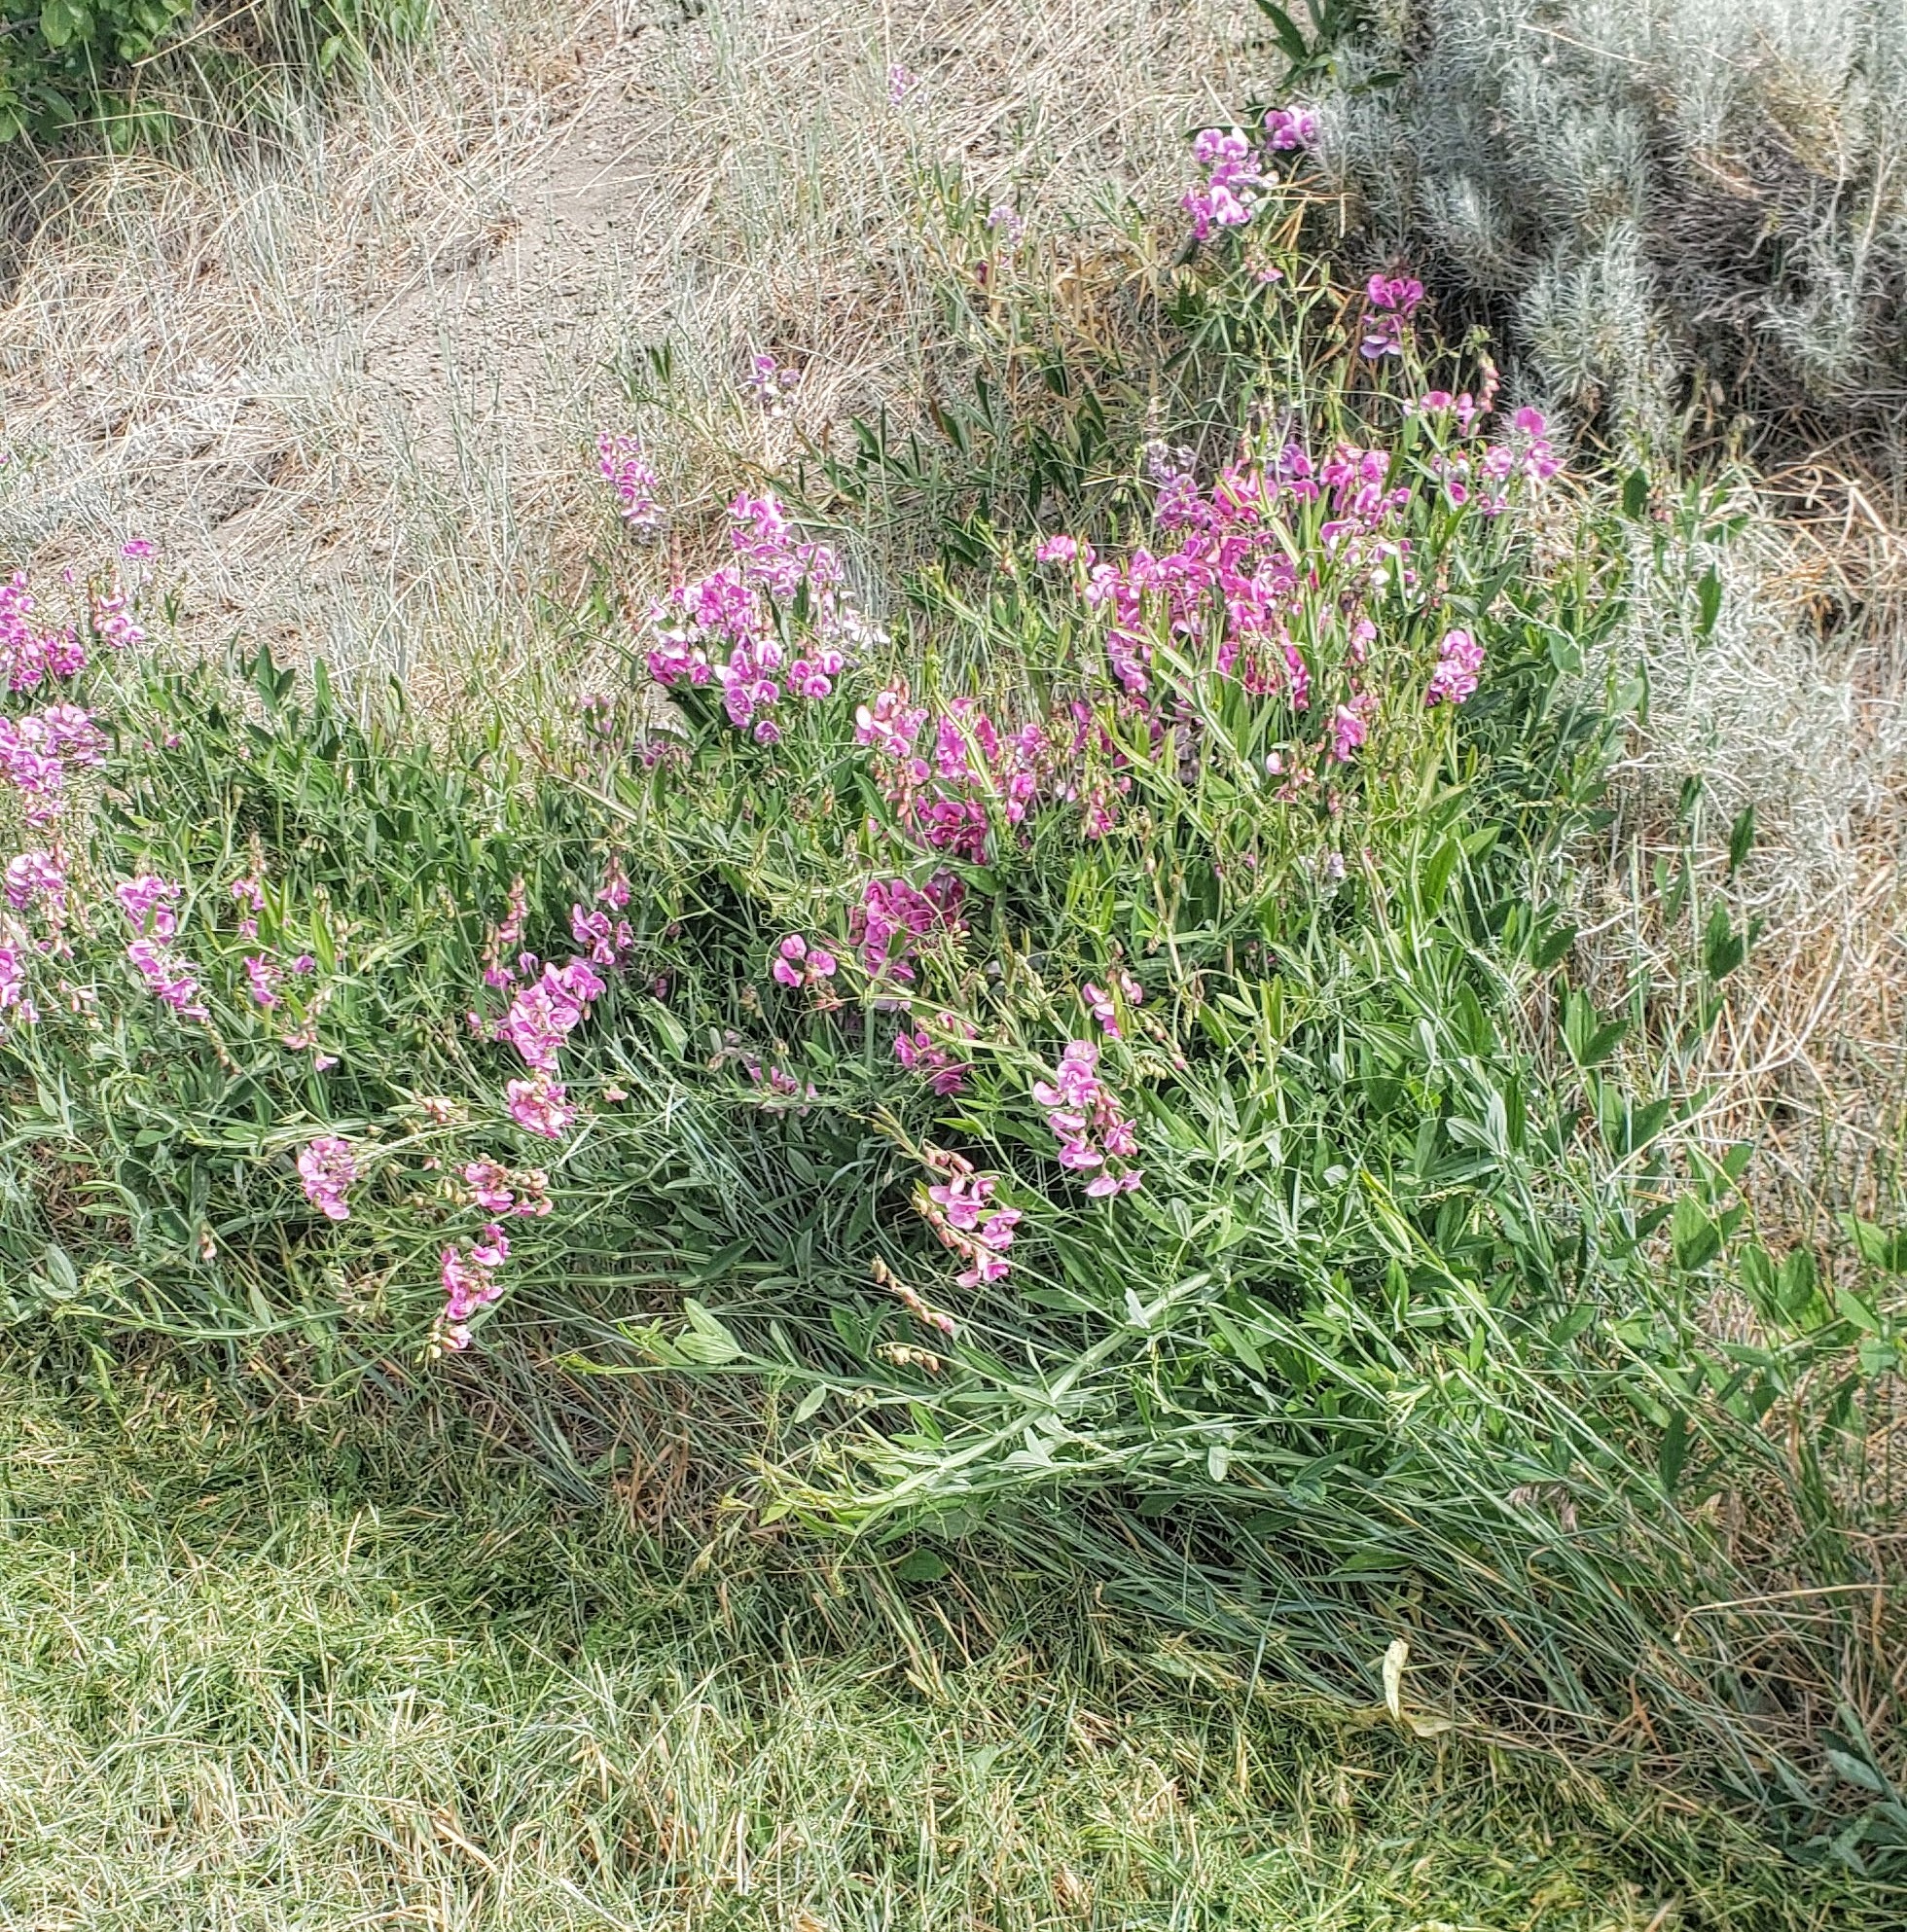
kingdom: Plantae
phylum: Tracheophyta
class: Magnoliopsida
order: Fabales
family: Fabaceae
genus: Lathyrus
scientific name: Lathyrus latifolius
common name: Perennial pea
